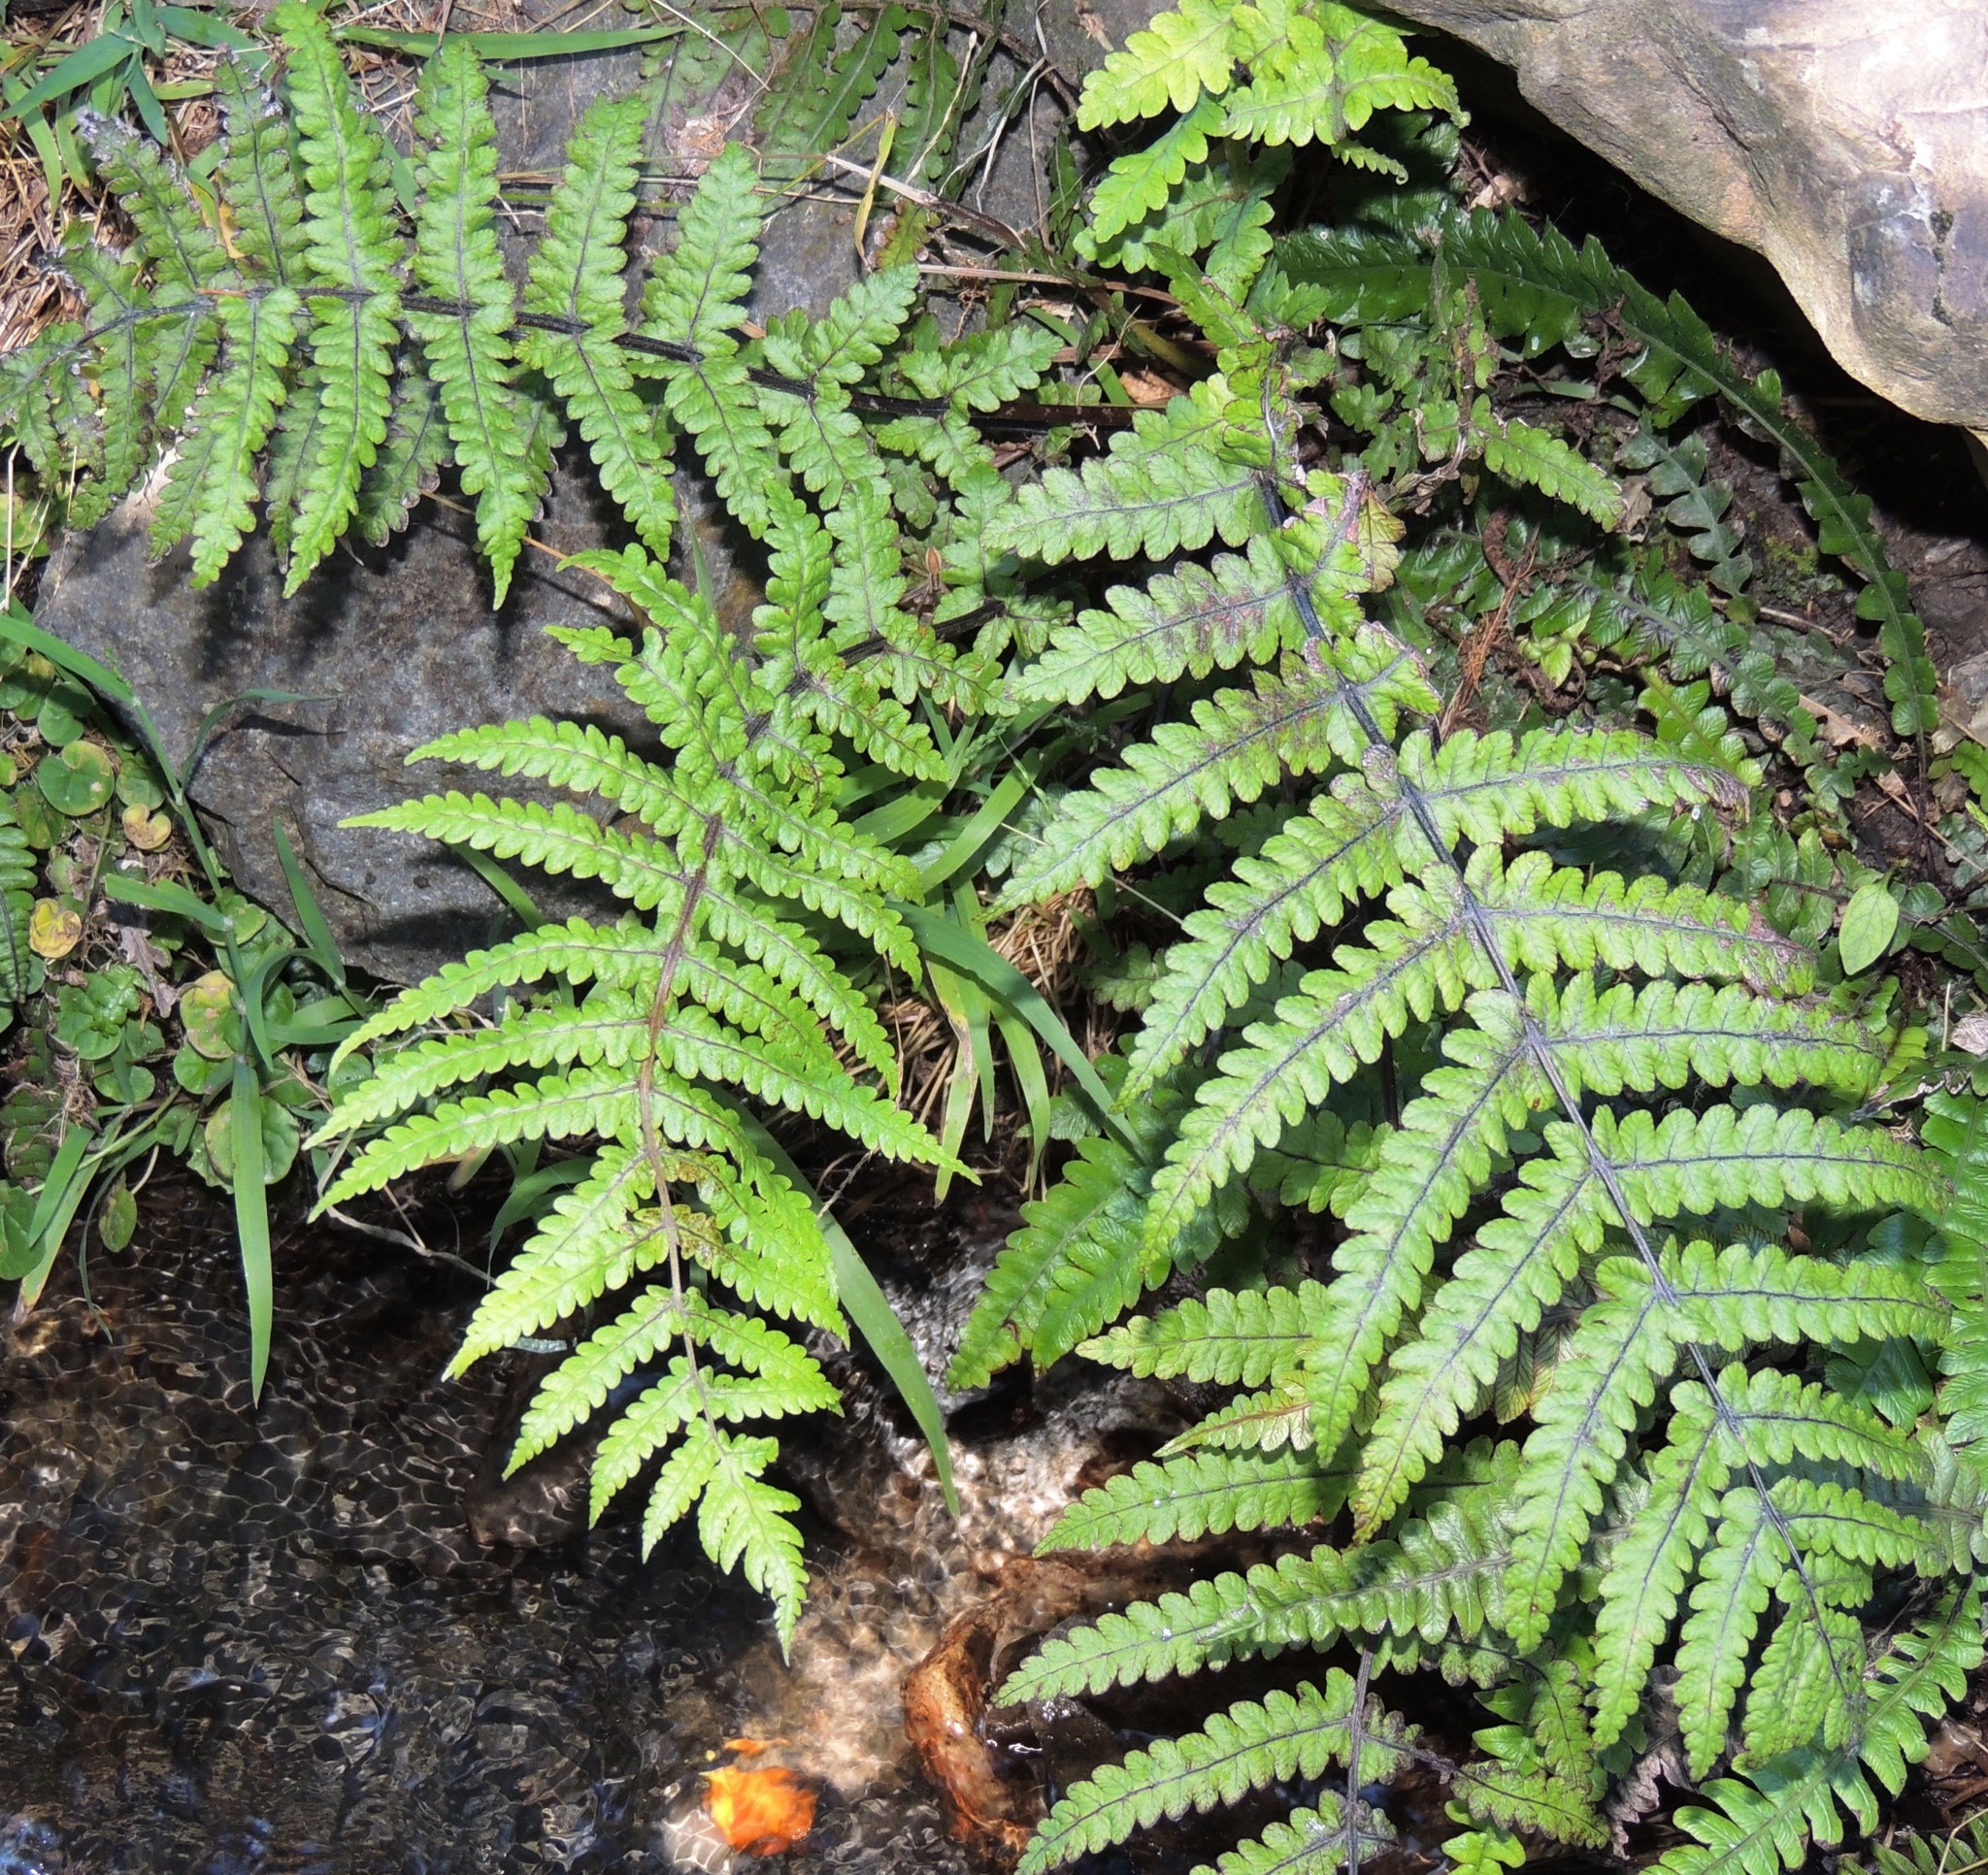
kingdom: Plantae
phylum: Tracheophyta
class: Polypodiopsida
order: Polypodiales
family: Thelypteridaceae
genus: Pakau
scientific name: Pakau pennigera
